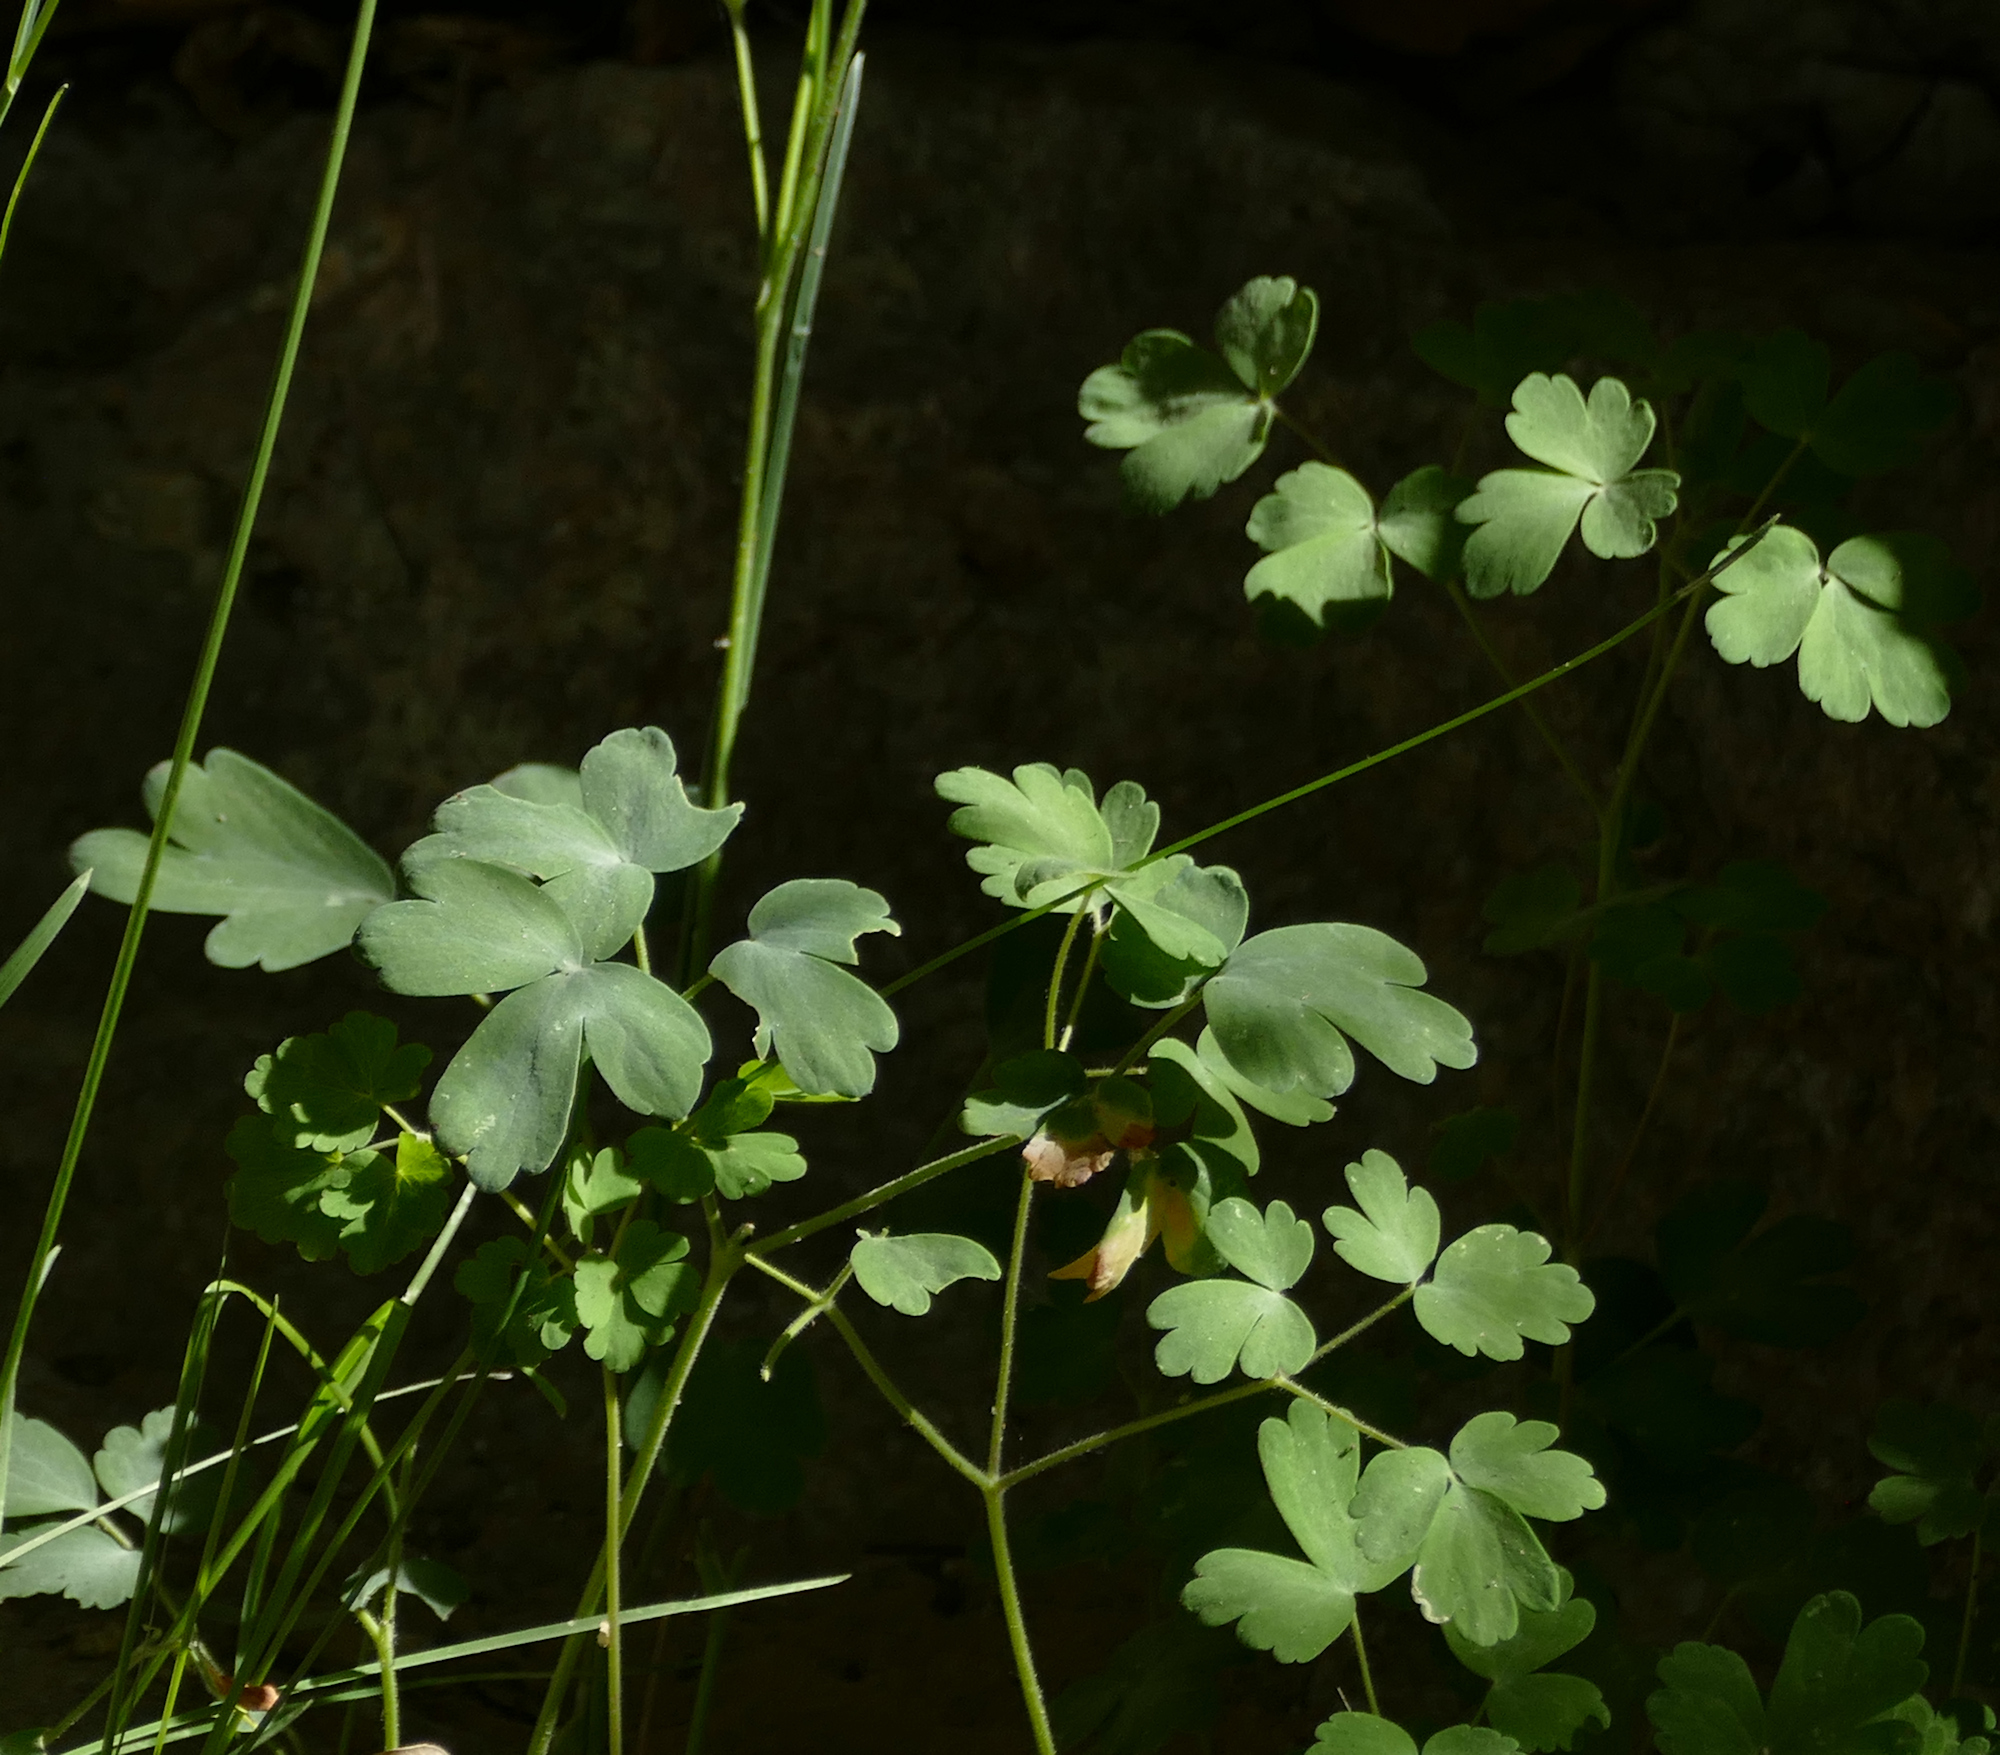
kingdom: Plantae
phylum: Tracheophyta
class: Magnoliopsida
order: Ranunculales
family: Ranunculaceae
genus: Aquilegia
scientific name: Aquilegia chrysantha
